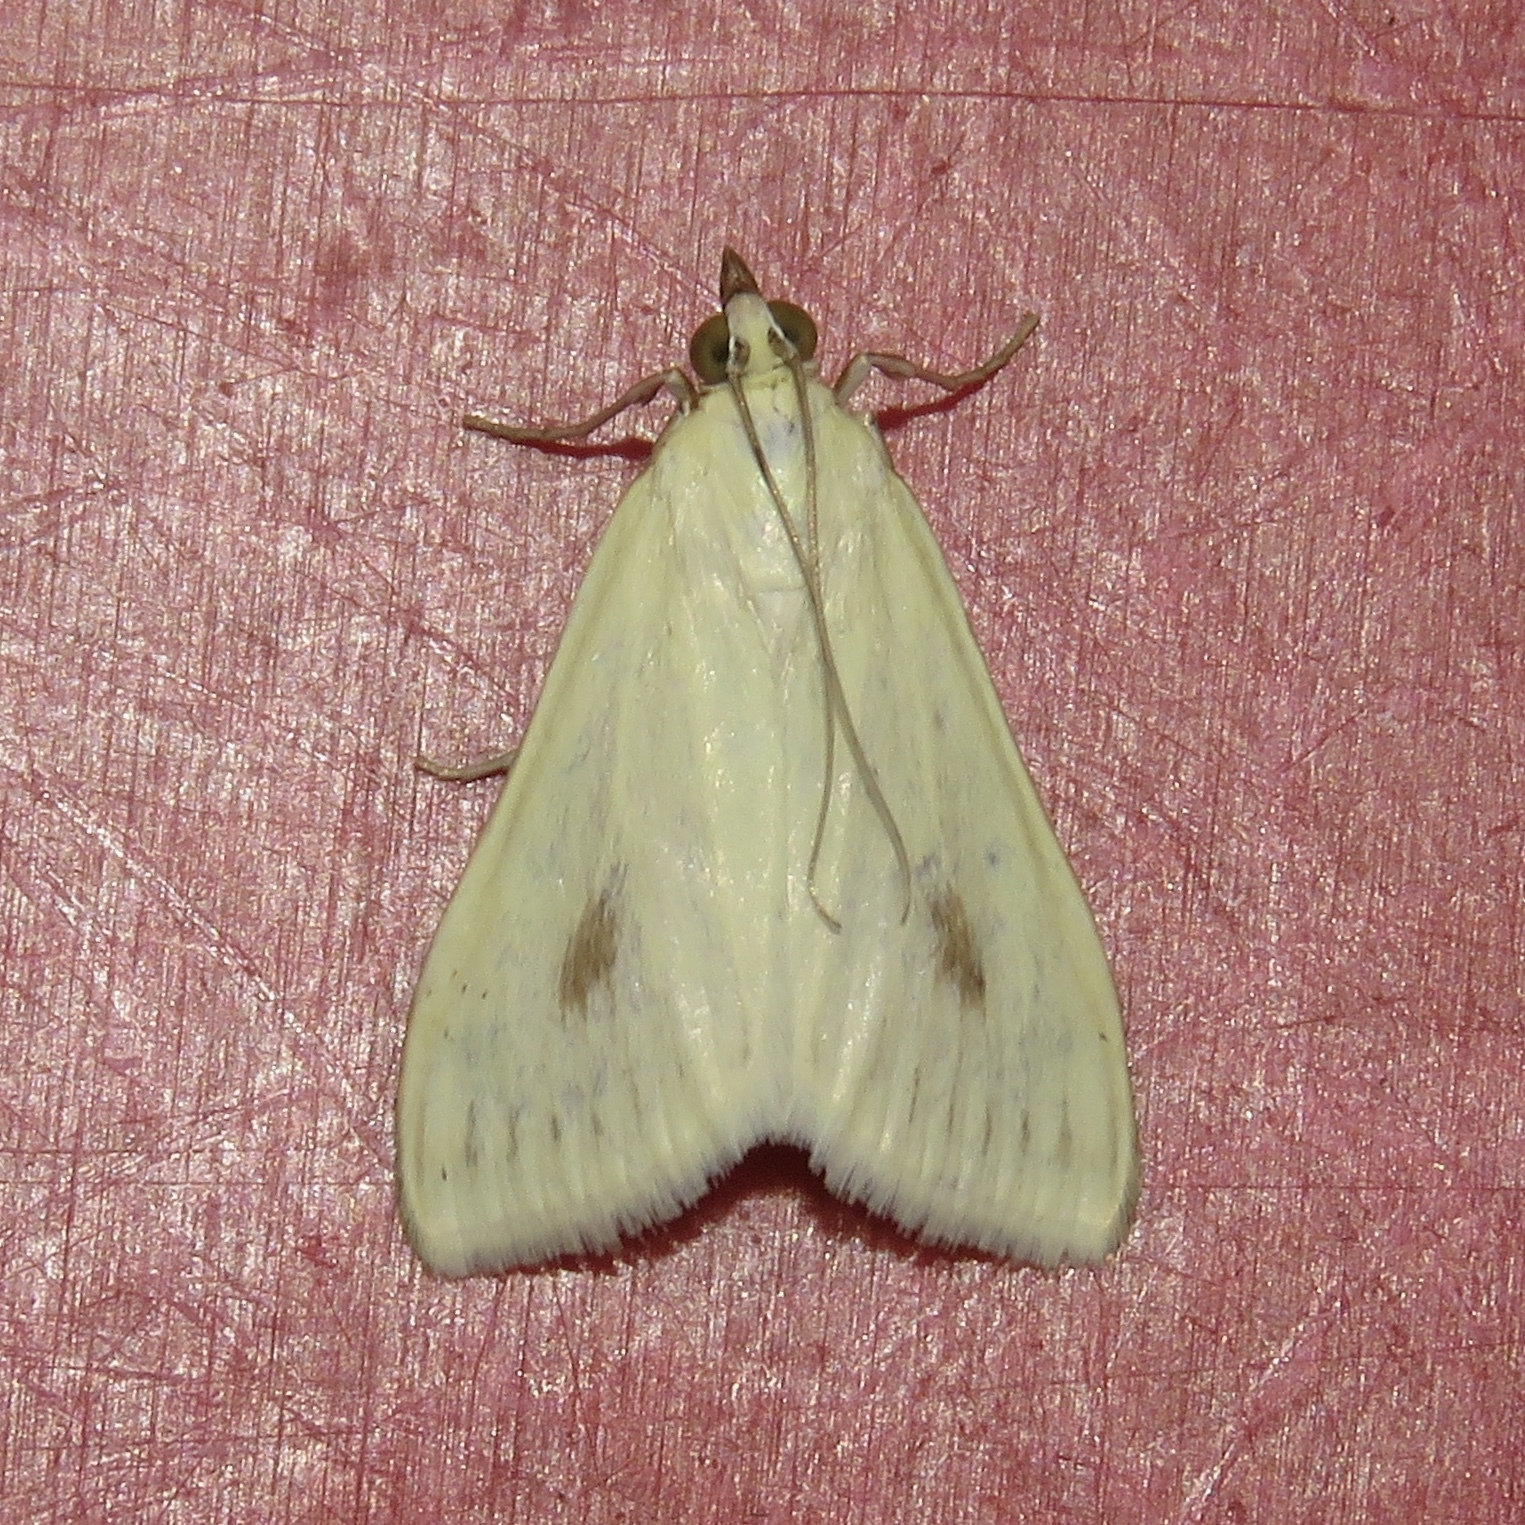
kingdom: Animalia
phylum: Arthropoda
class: Insecta
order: Lepidoptera
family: Crambidae
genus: Sitochroa
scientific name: Sitochroa palealis
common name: Greenish-yellow sitochroa moth
